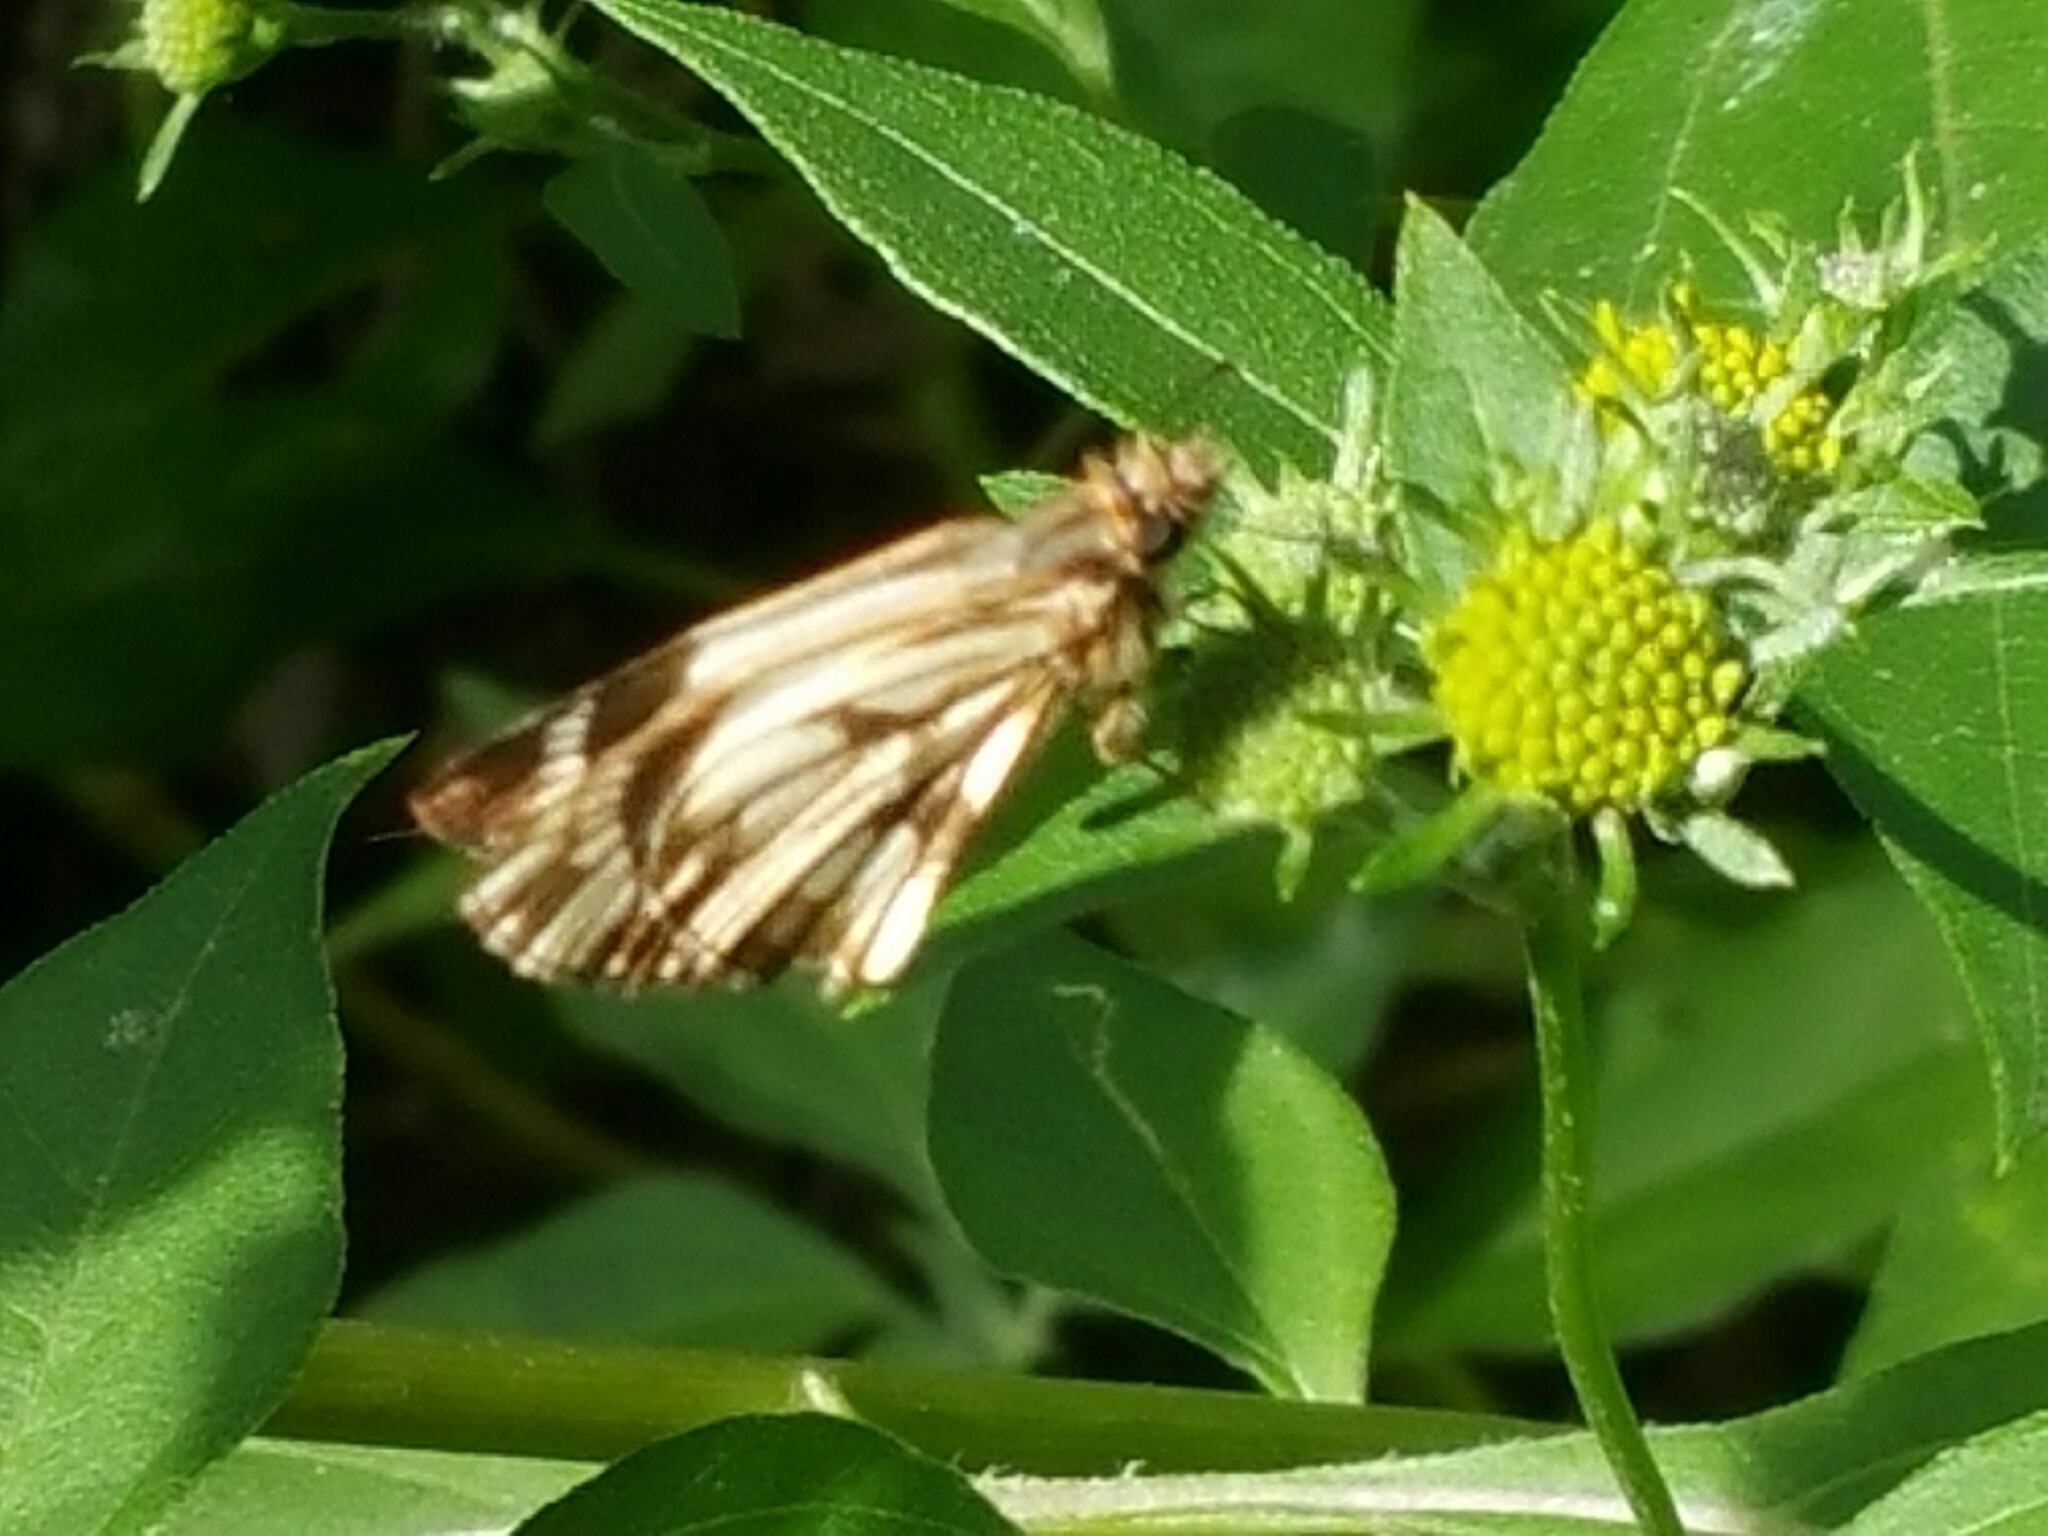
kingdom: Animalia
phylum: Arthropoda
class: Insecta
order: Lepidoptera
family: Hesperiidae
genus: Heliopetes
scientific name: Heliopetes alana
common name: Alana white-skipper
